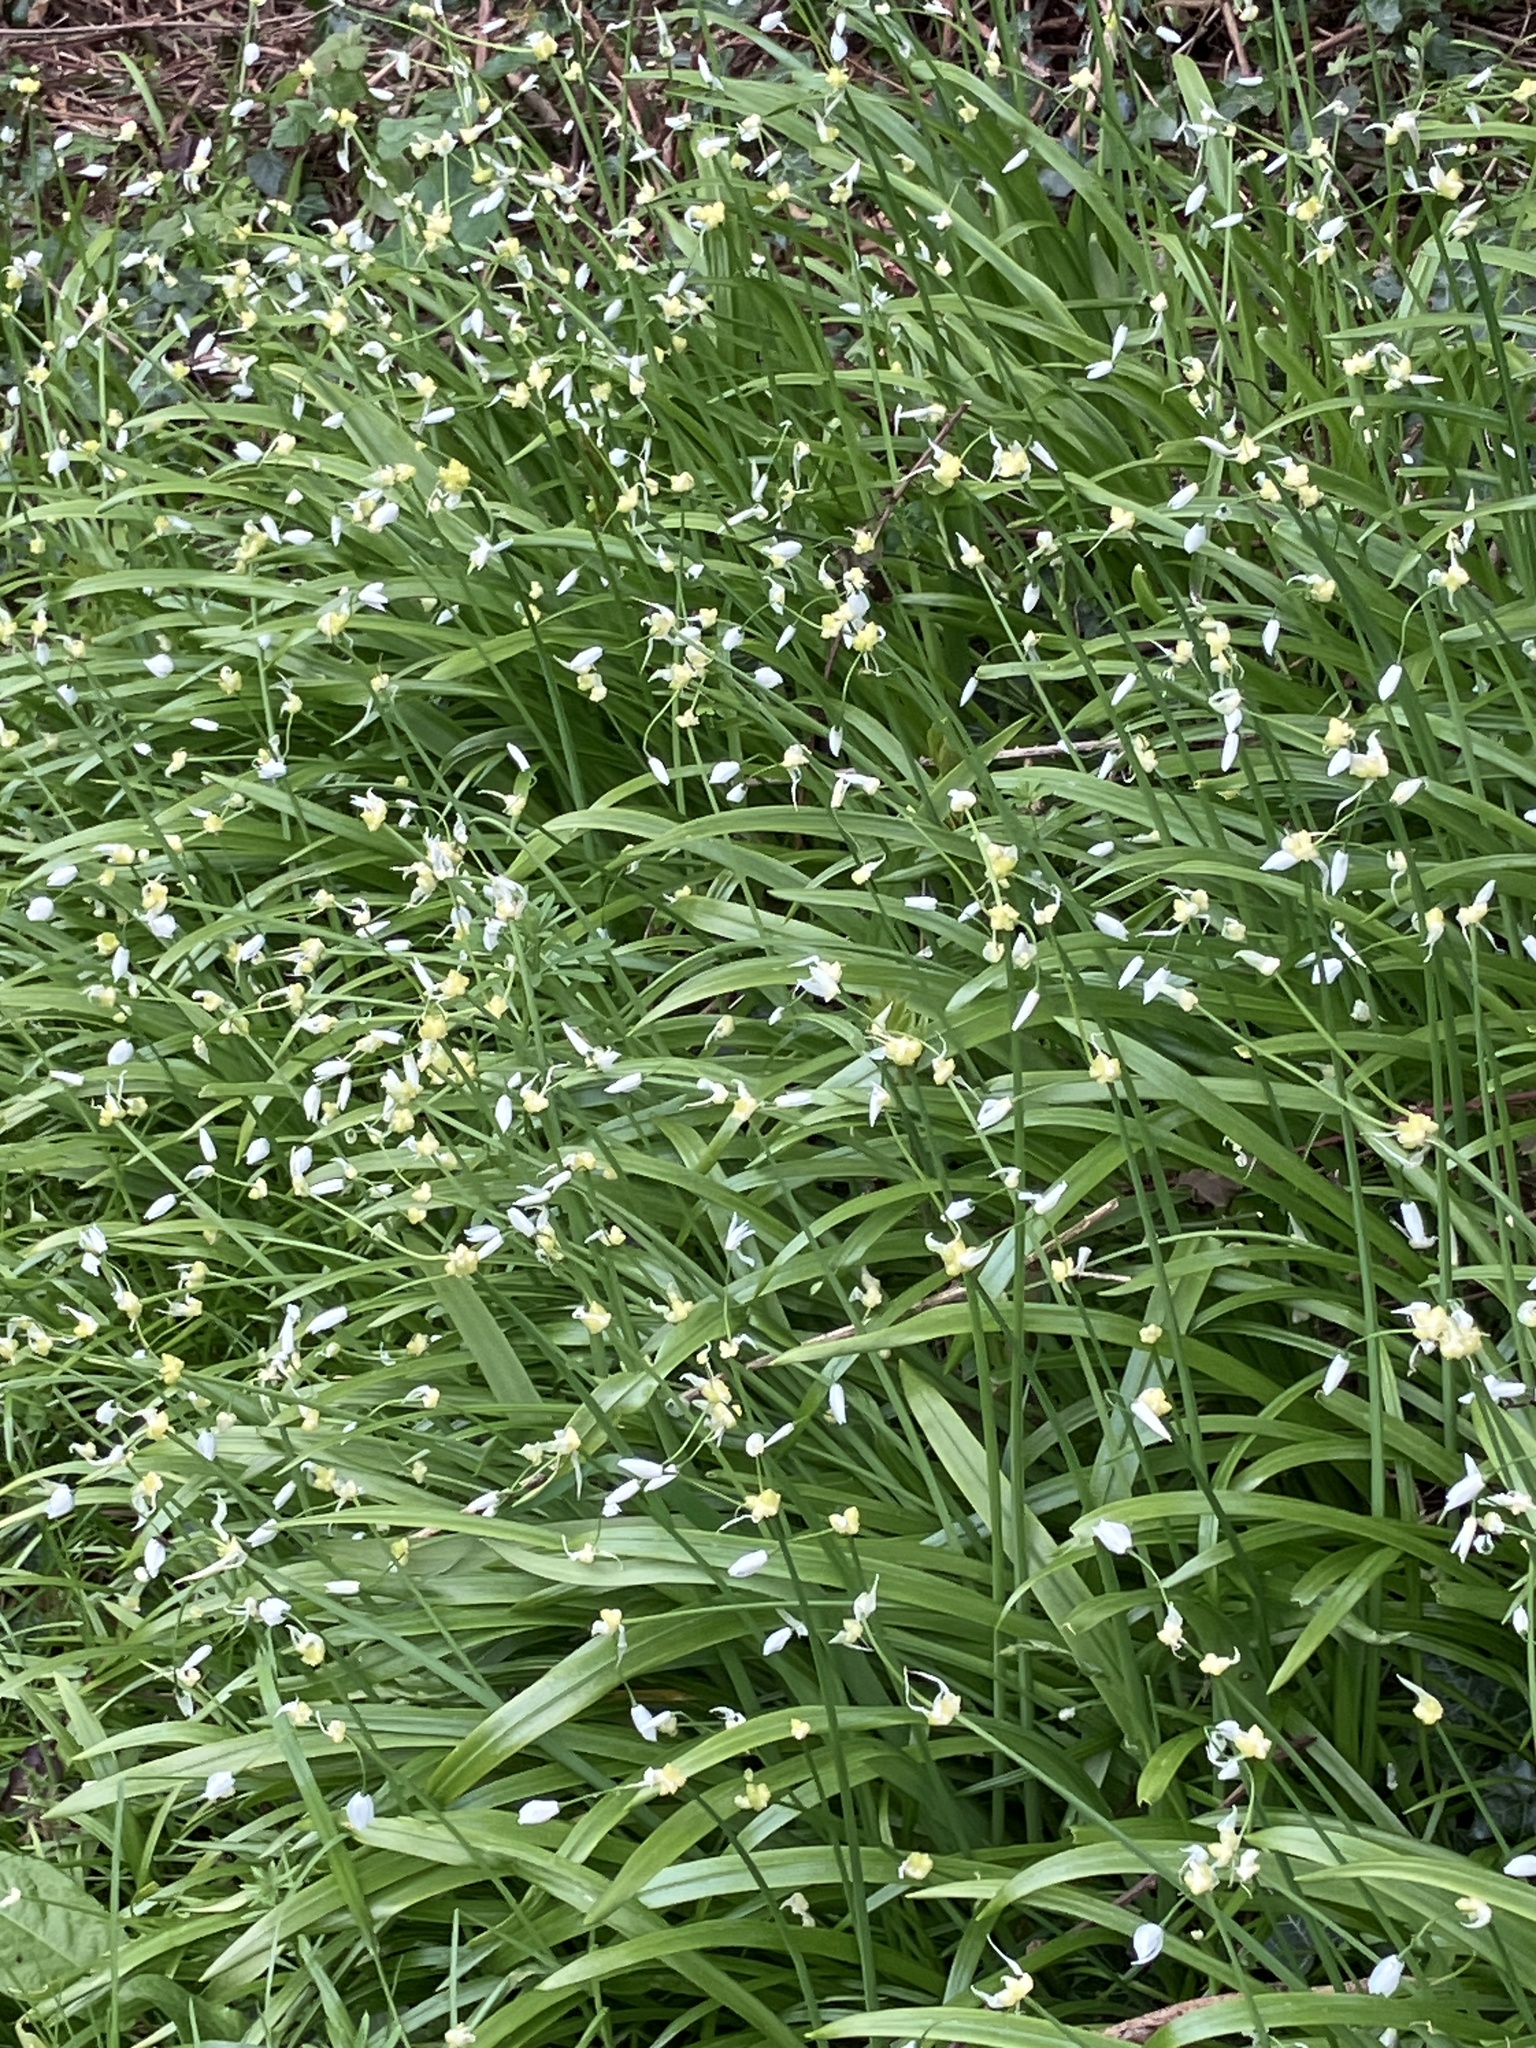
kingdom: Plantae
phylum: Tracheophyta
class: Liliopsida
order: Asparagales
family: Amaryllidaceae
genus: Allium
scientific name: Allium paradoxum
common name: Few-flowered garlic
